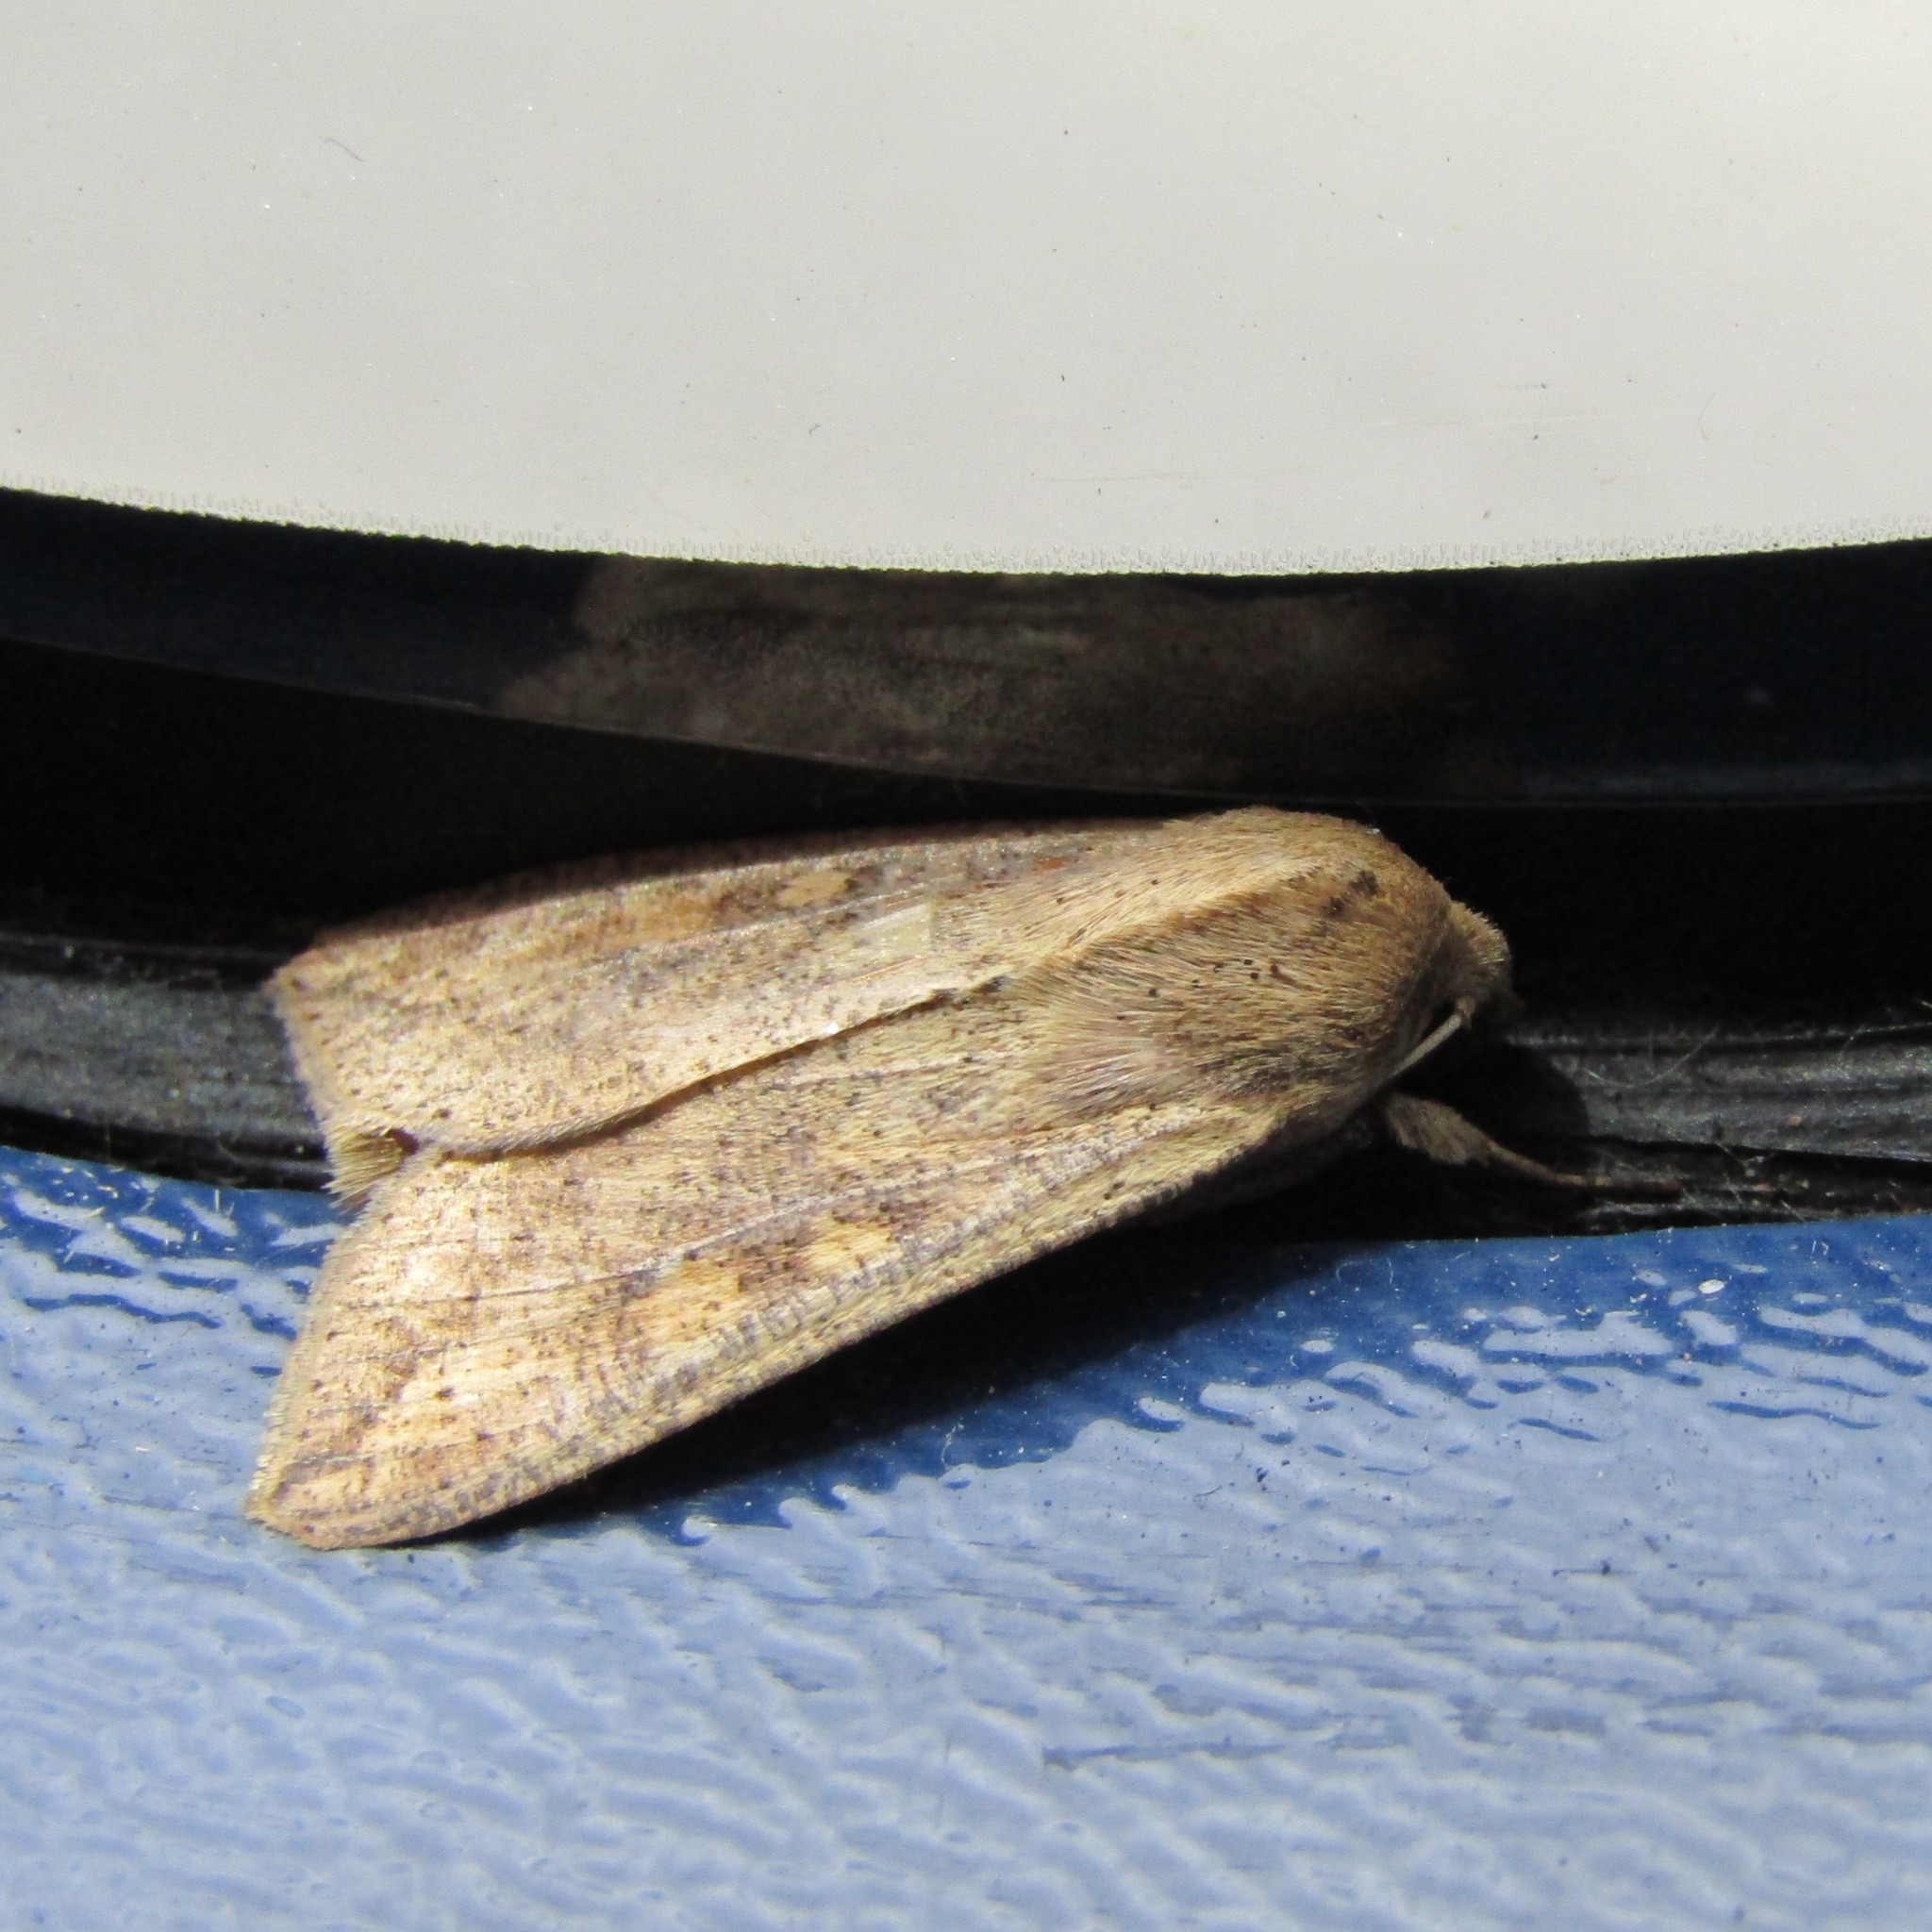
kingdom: Animalia
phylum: Arthropoda
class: Insecta
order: Lepidoptera
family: Noctuidae
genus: Mythimna
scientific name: Mythimna separata
